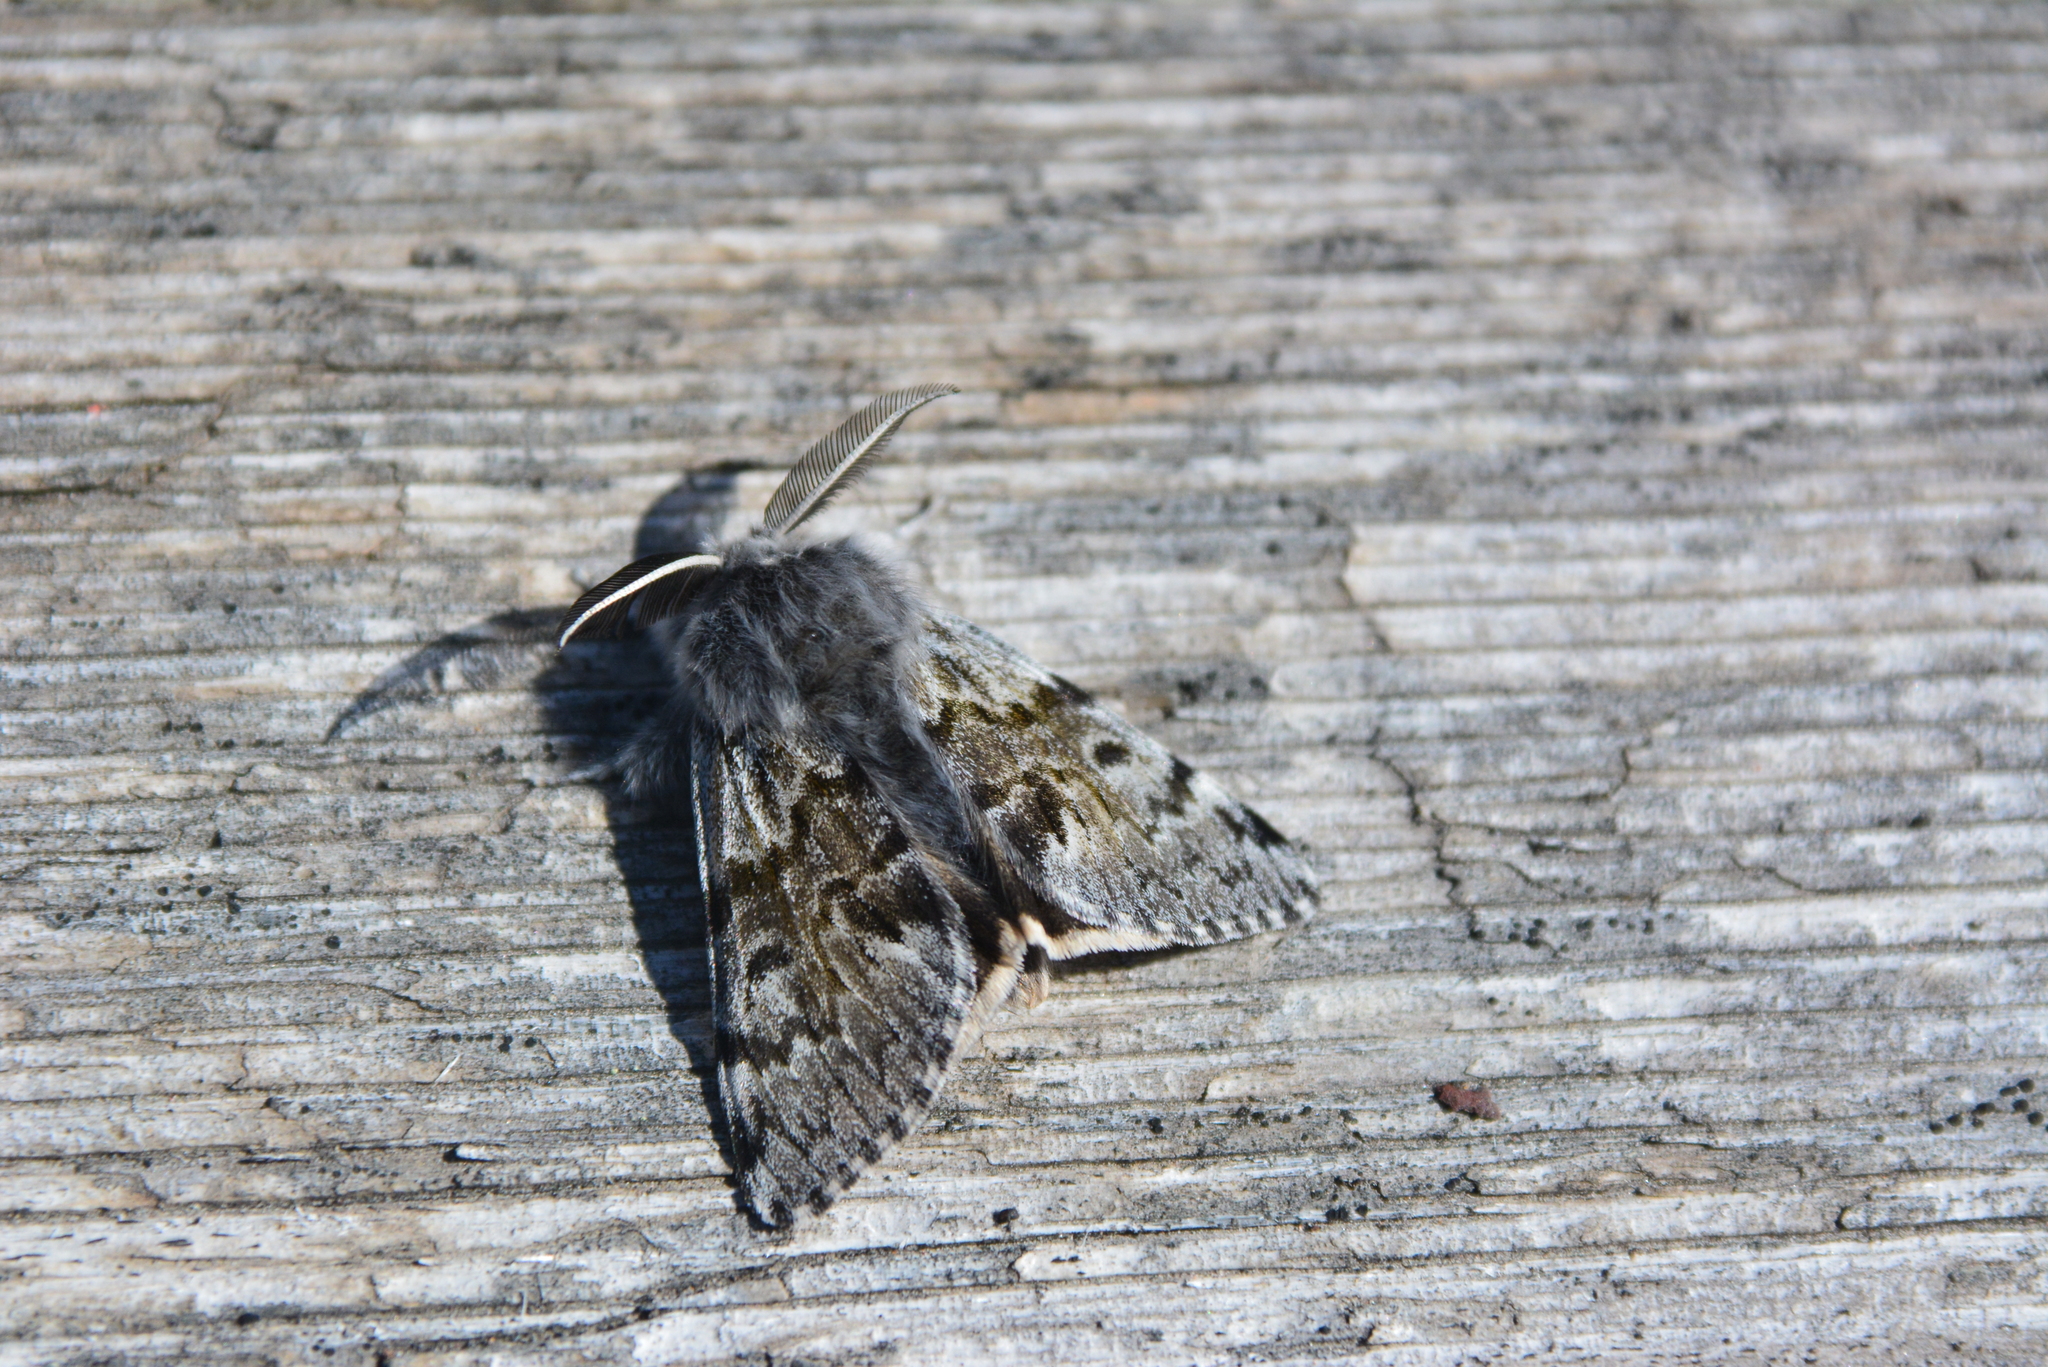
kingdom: Animalia
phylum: Arthropoda
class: Insecta
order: Lepidoptera
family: Erebidae
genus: Gynaephora
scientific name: Gynaephora rossii
